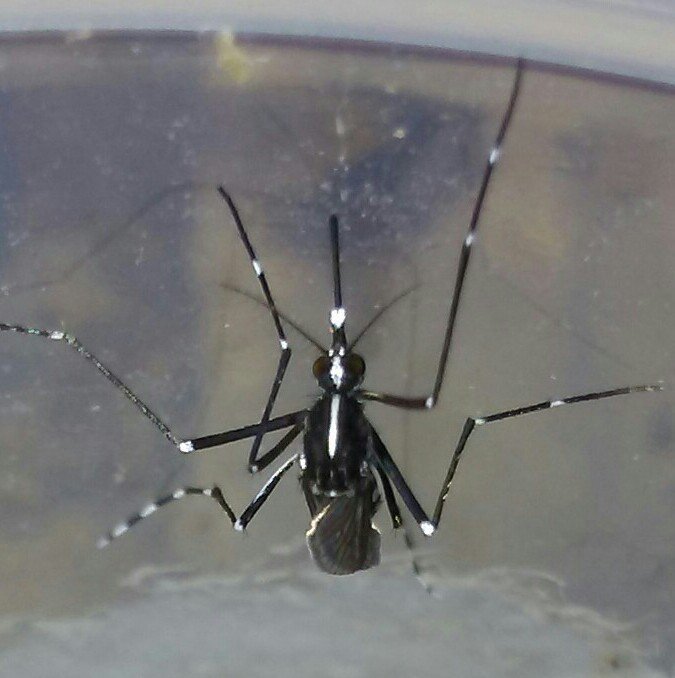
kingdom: Animalia
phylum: Arthropoda
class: Insecta
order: Diptera
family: Culicidae
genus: Aedes
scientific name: Aedes albopictus
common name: Tiger mosquito
